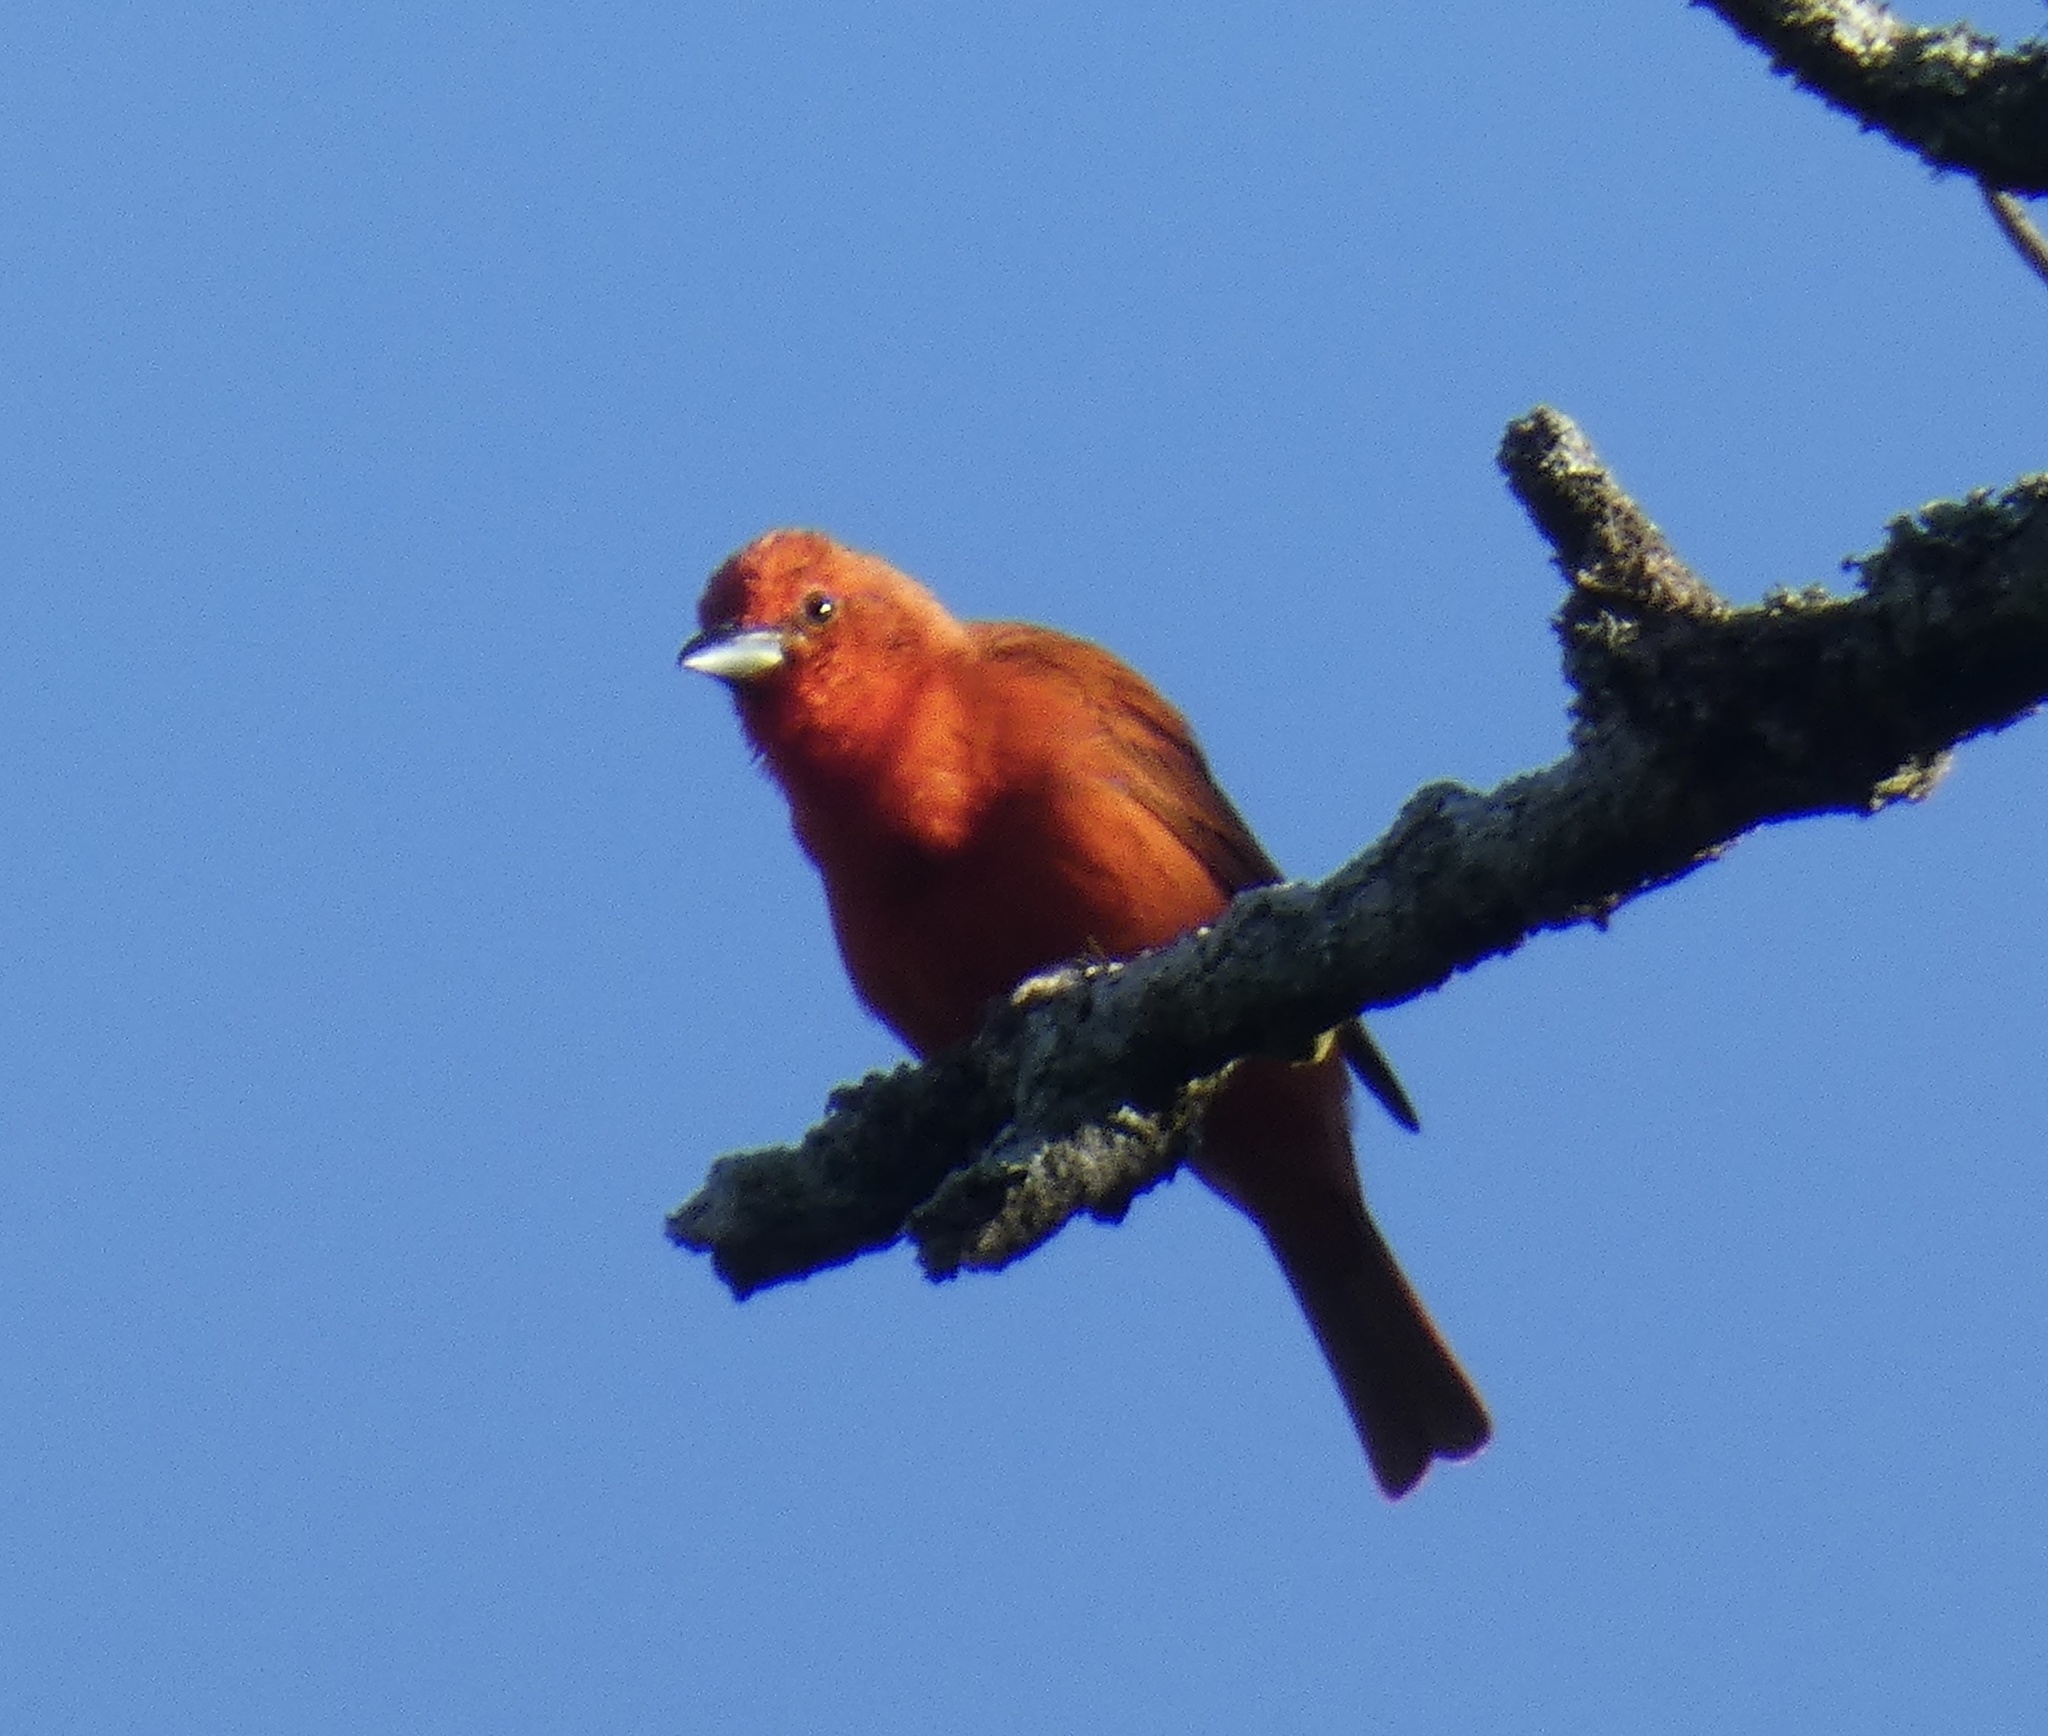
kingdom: Animalia
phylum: Chordata
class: Aves
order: Passeriformes
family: Cardinalidae
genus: Piranga
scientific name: Piranga flava
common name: Red tanager
